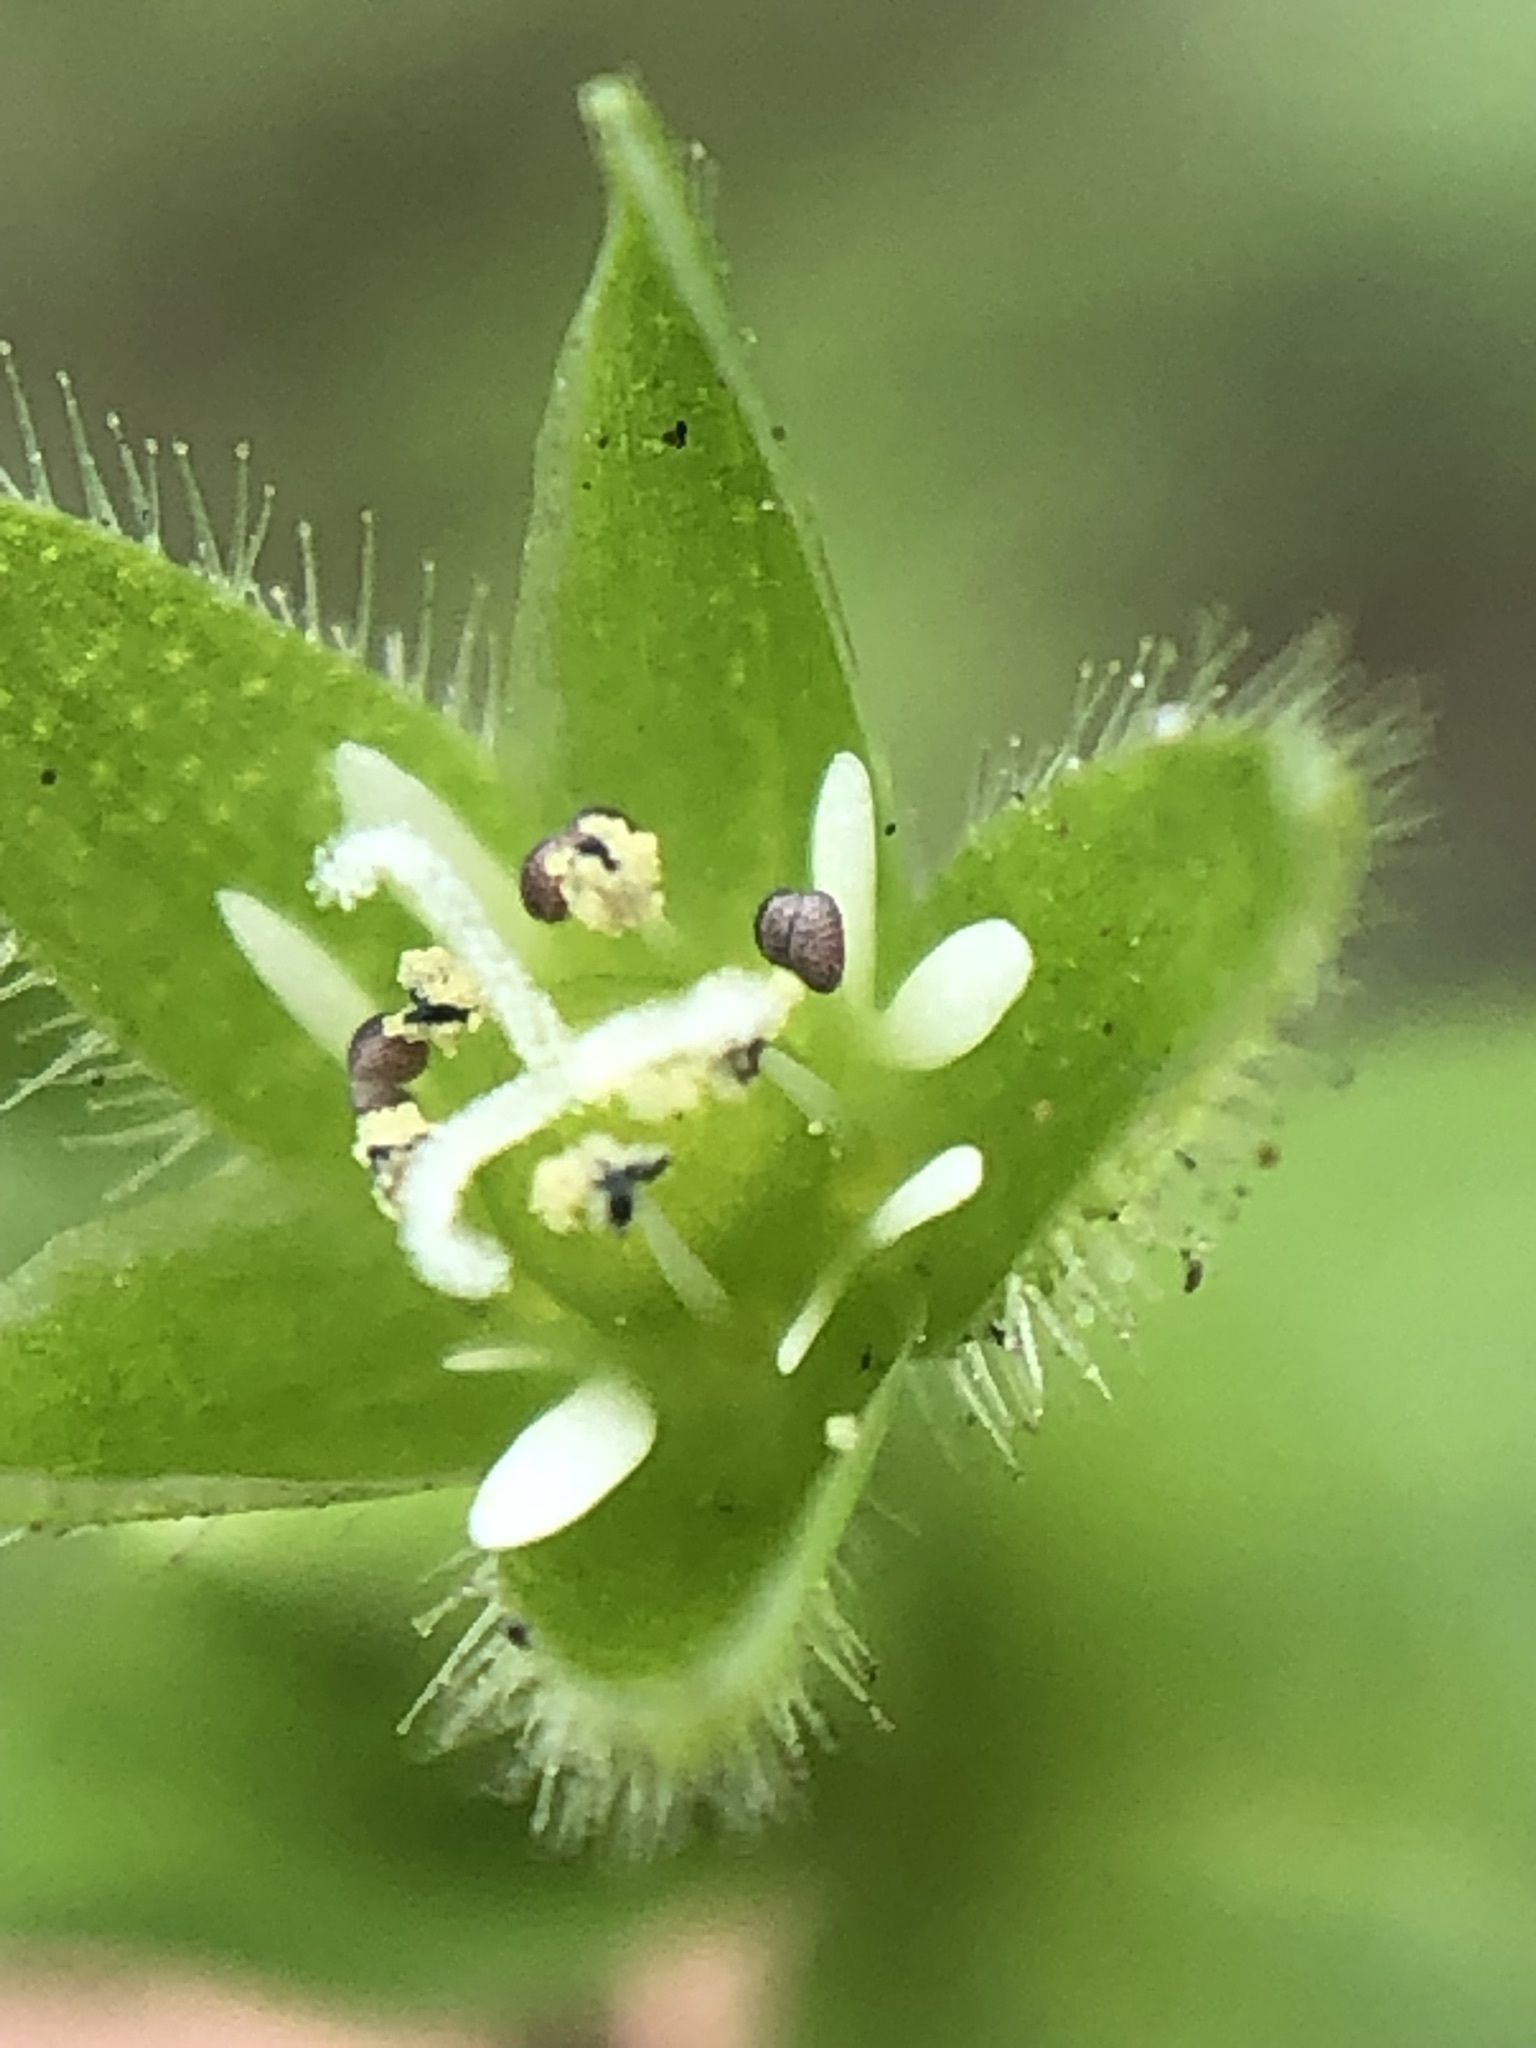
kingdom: Plantae
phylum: Tracheophyta
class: Magnoliopsida
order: Caryophyllales
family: Caryophyllaceae
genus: Stellaria
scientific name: Stellaria apetala
